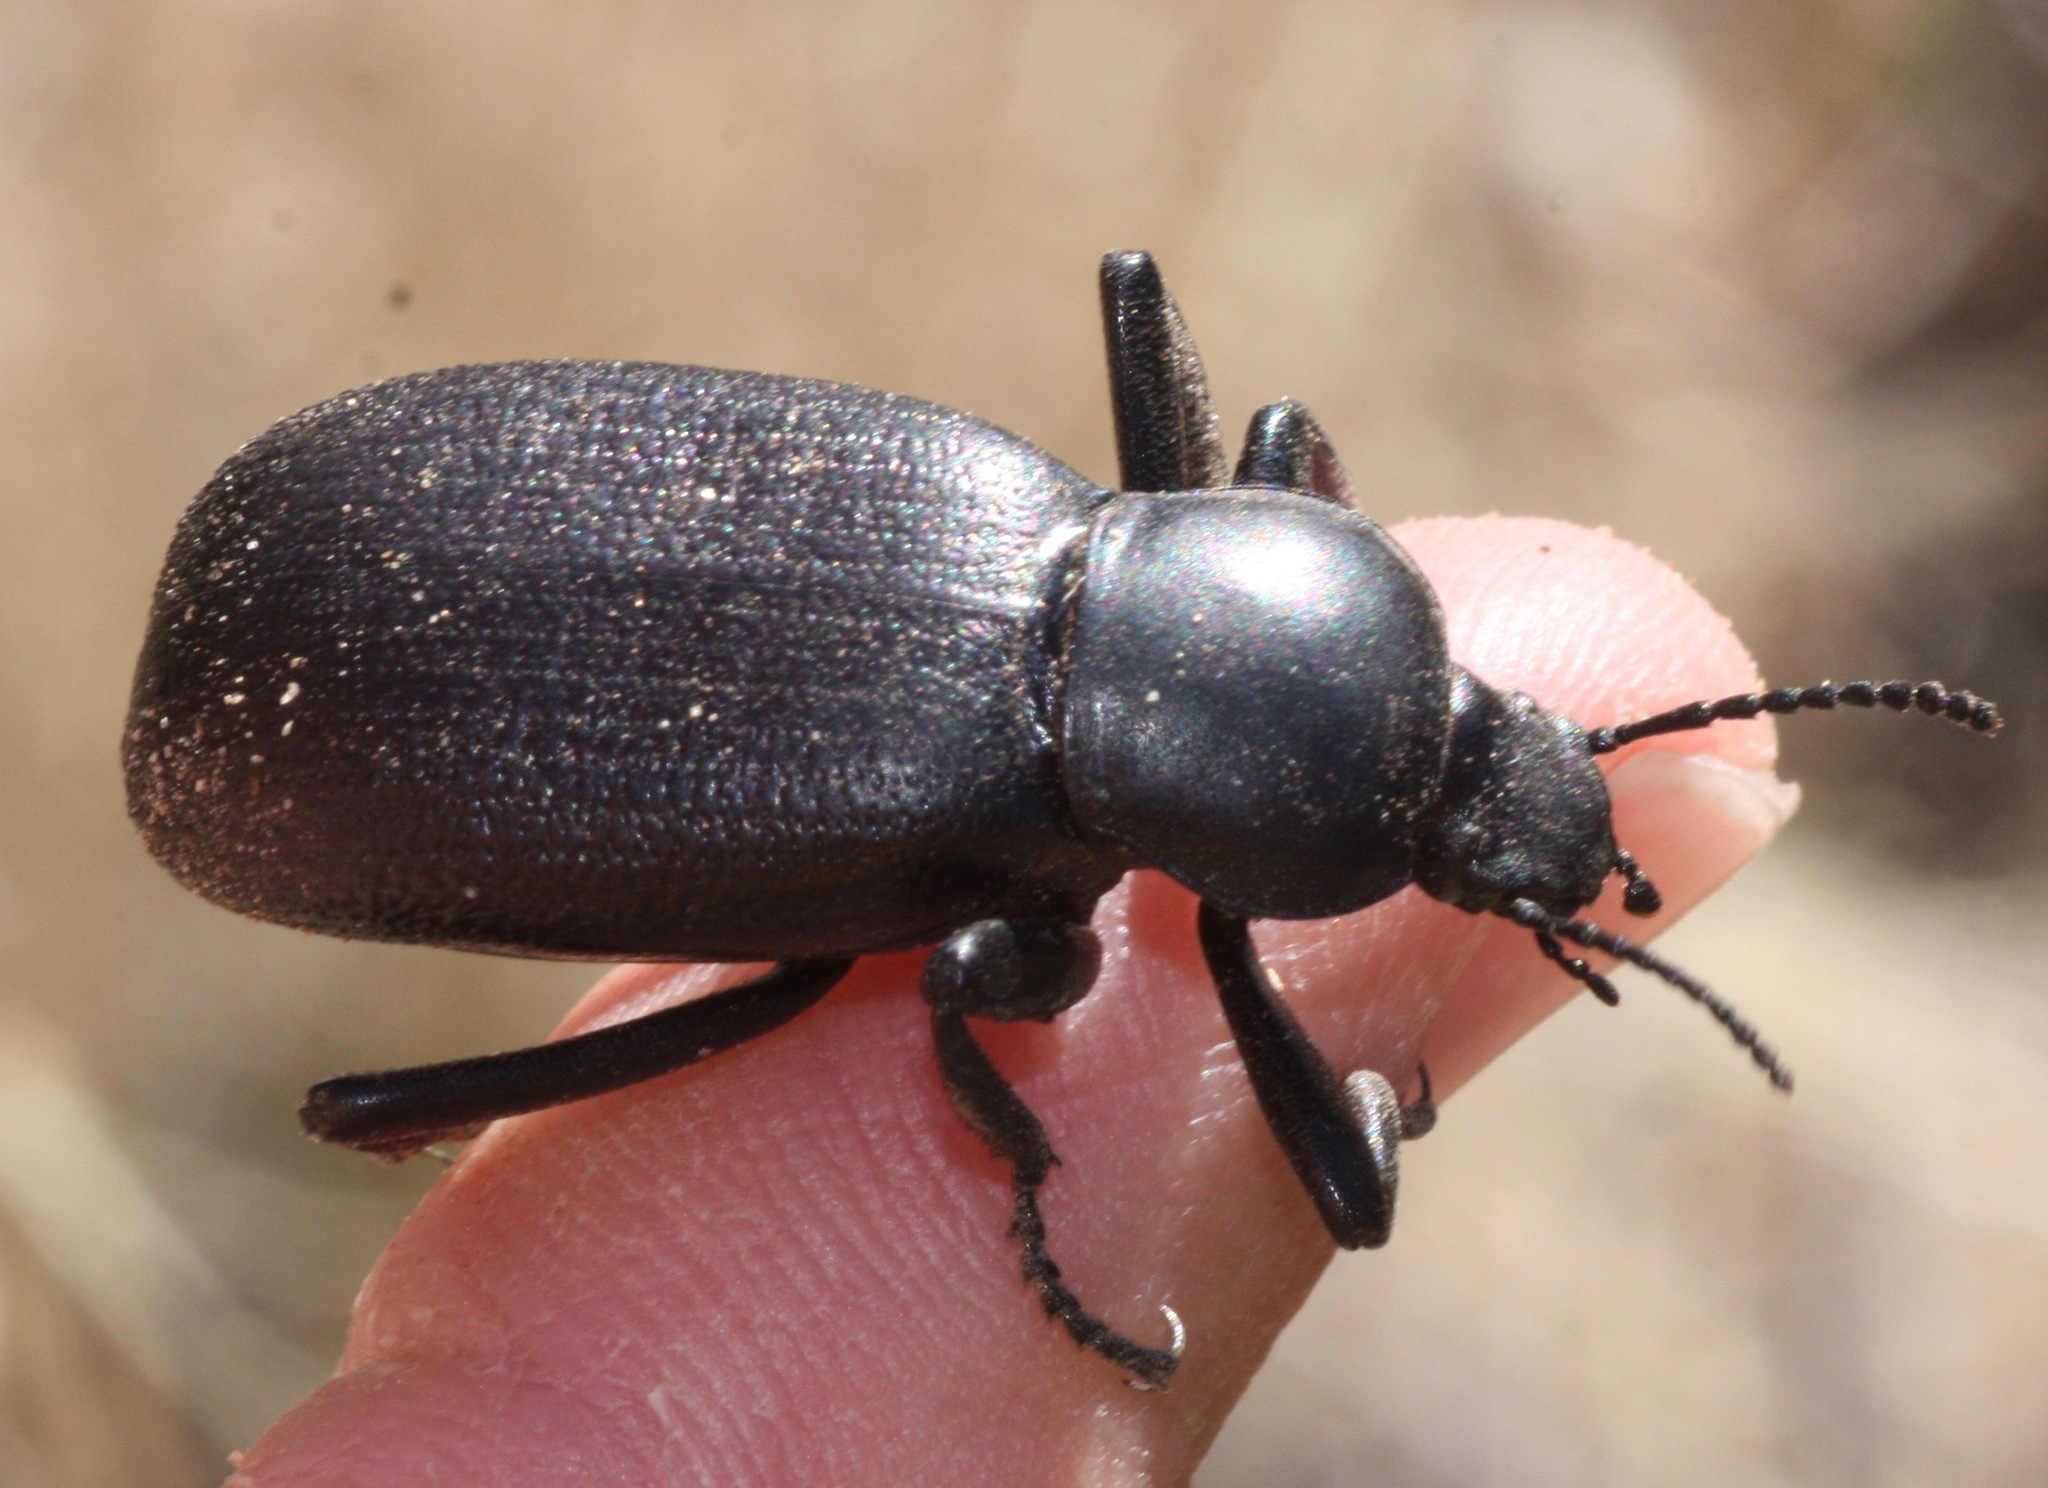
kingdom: Animalia
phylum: Arthropoda
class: Insecta
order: Coleoptera
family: Tenebrionidae
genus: Eleodes
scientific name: Eleodes obscura
